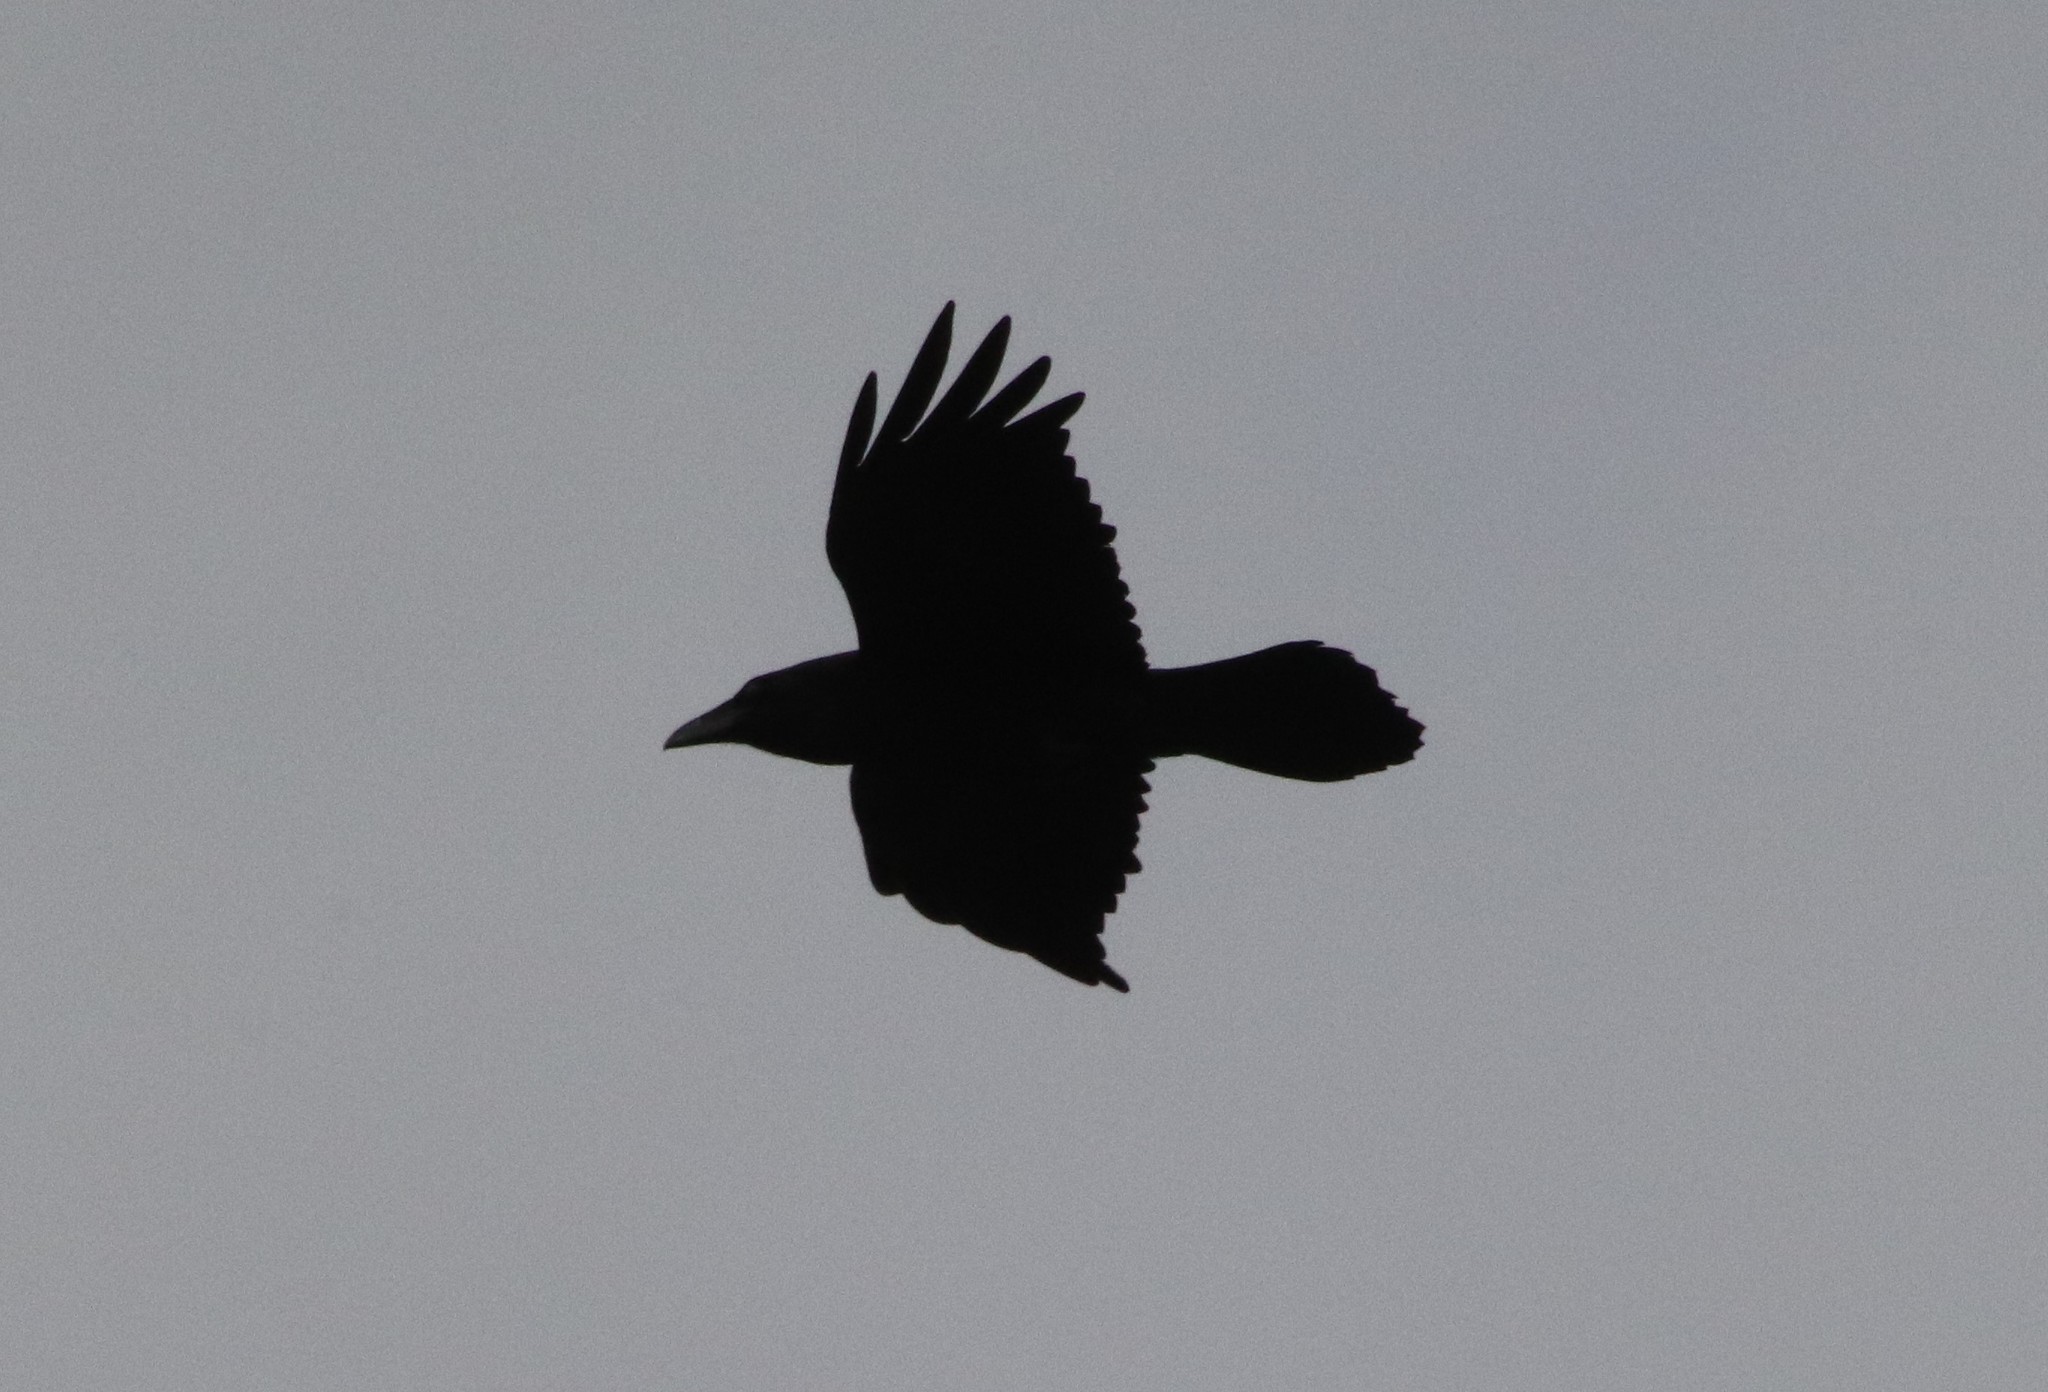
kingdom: Animalia
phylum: Chordata
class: Aves
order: Passeriformes
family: Corvidae
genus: Corvus
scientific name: Corvus corax
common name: Common raven
